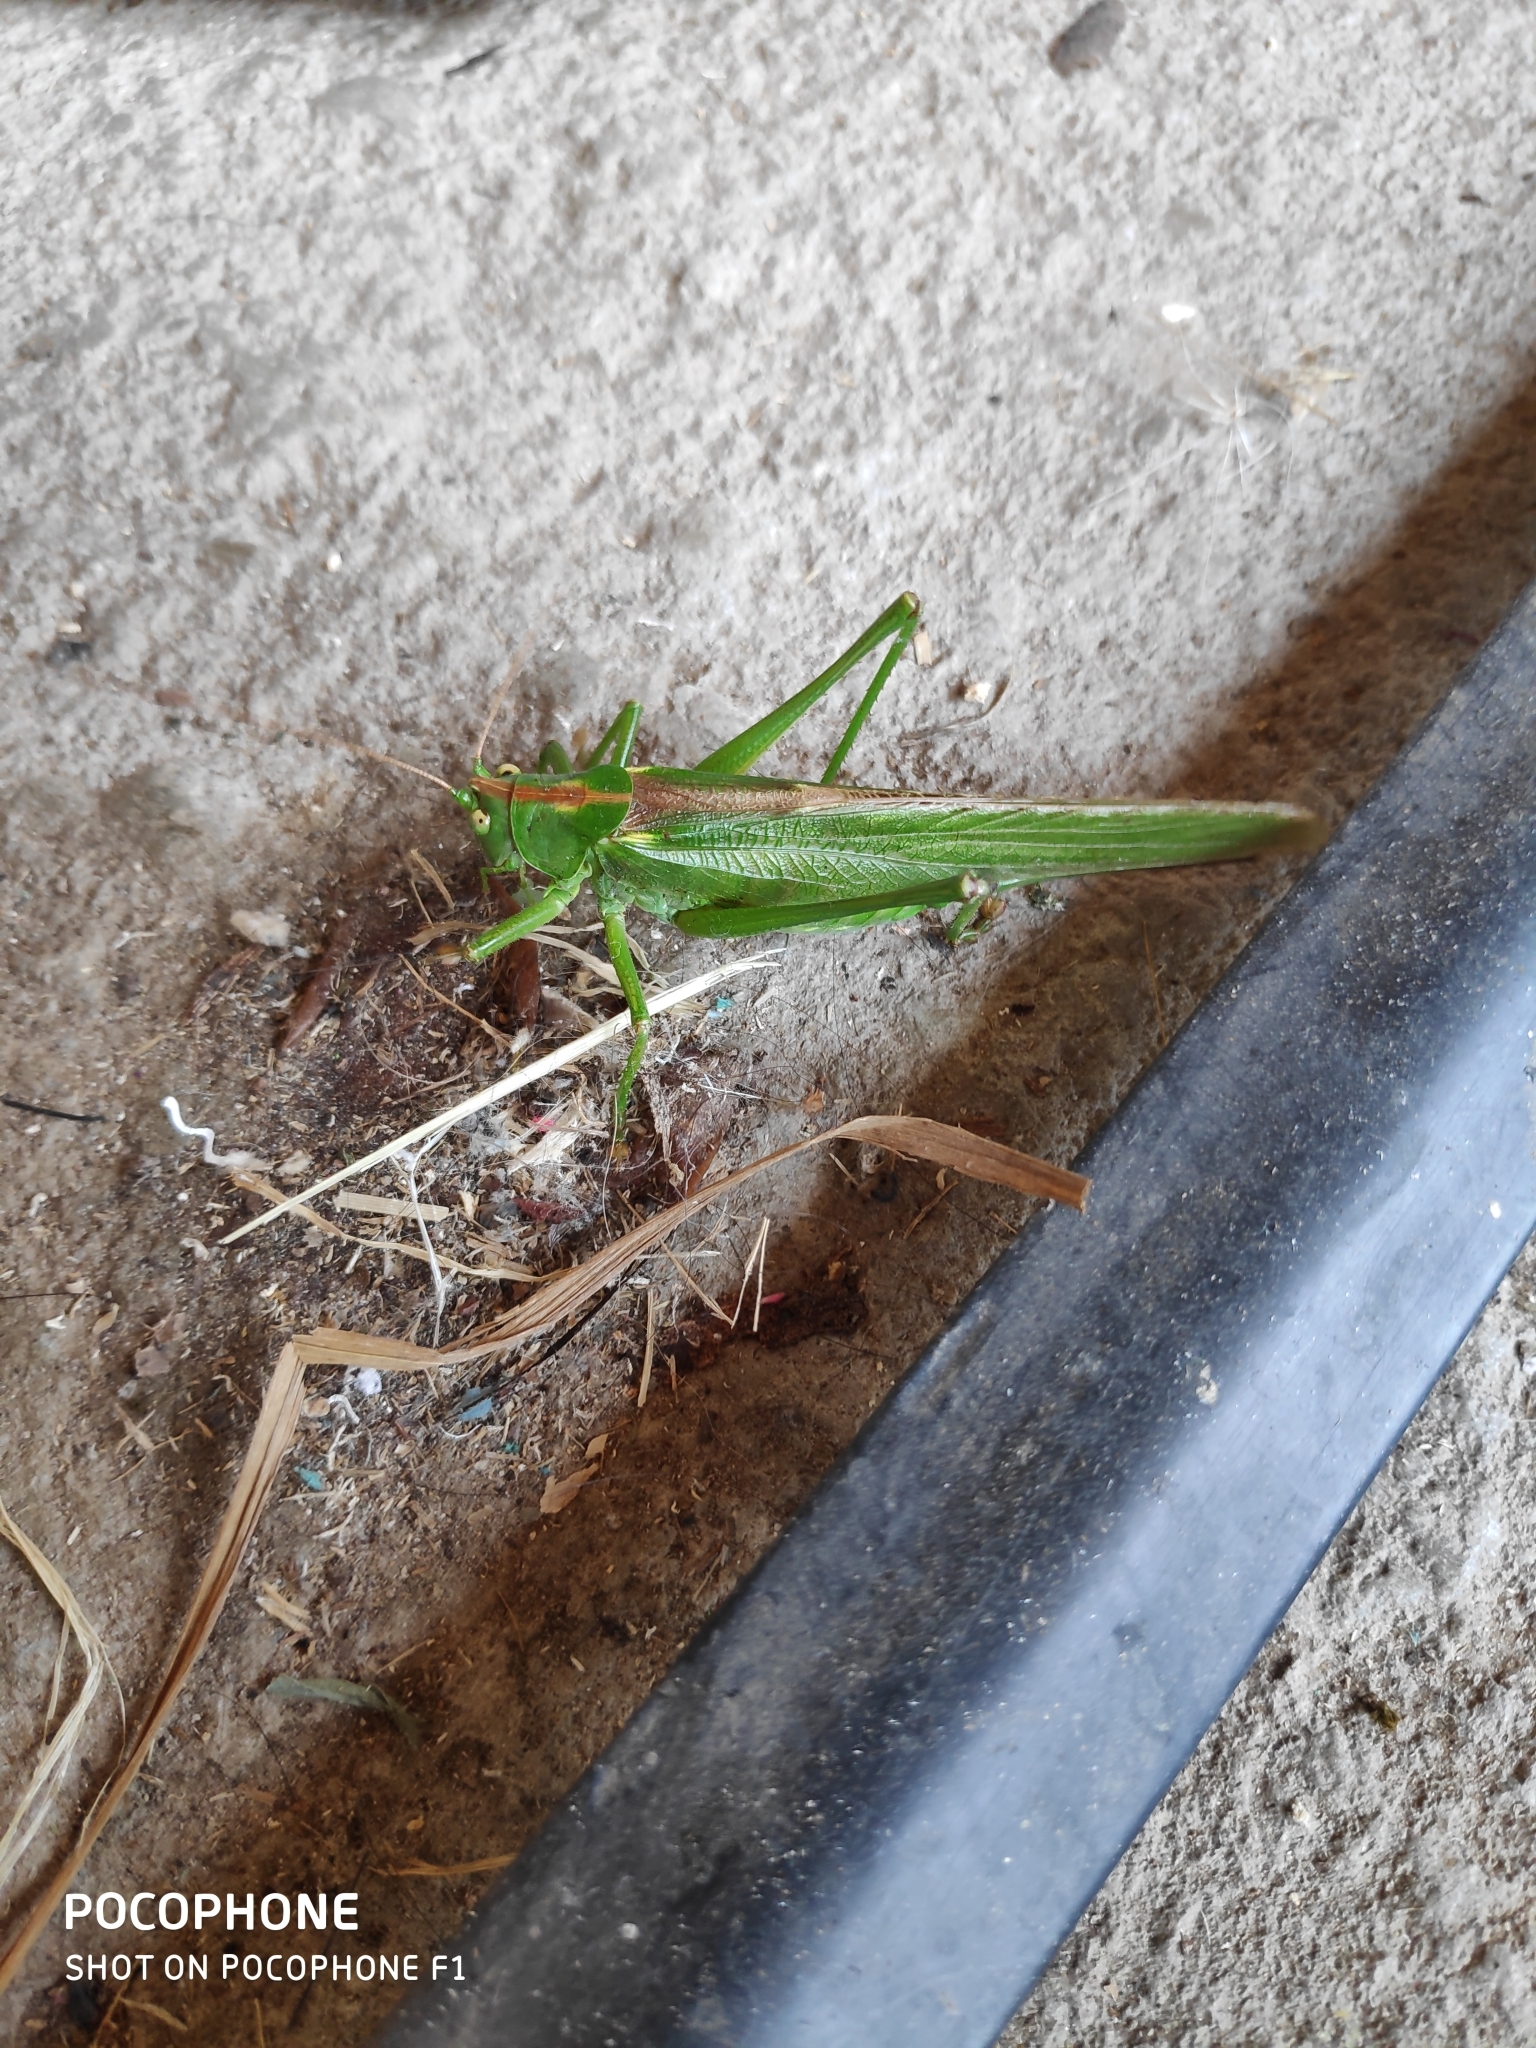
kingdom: Animalia
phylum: Arthropoda
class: Insecta
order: Orthoptera
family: Tettigoniidae
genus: Tettigonia
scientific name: Tettigonia viridissima
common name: Great green bush-cricket
